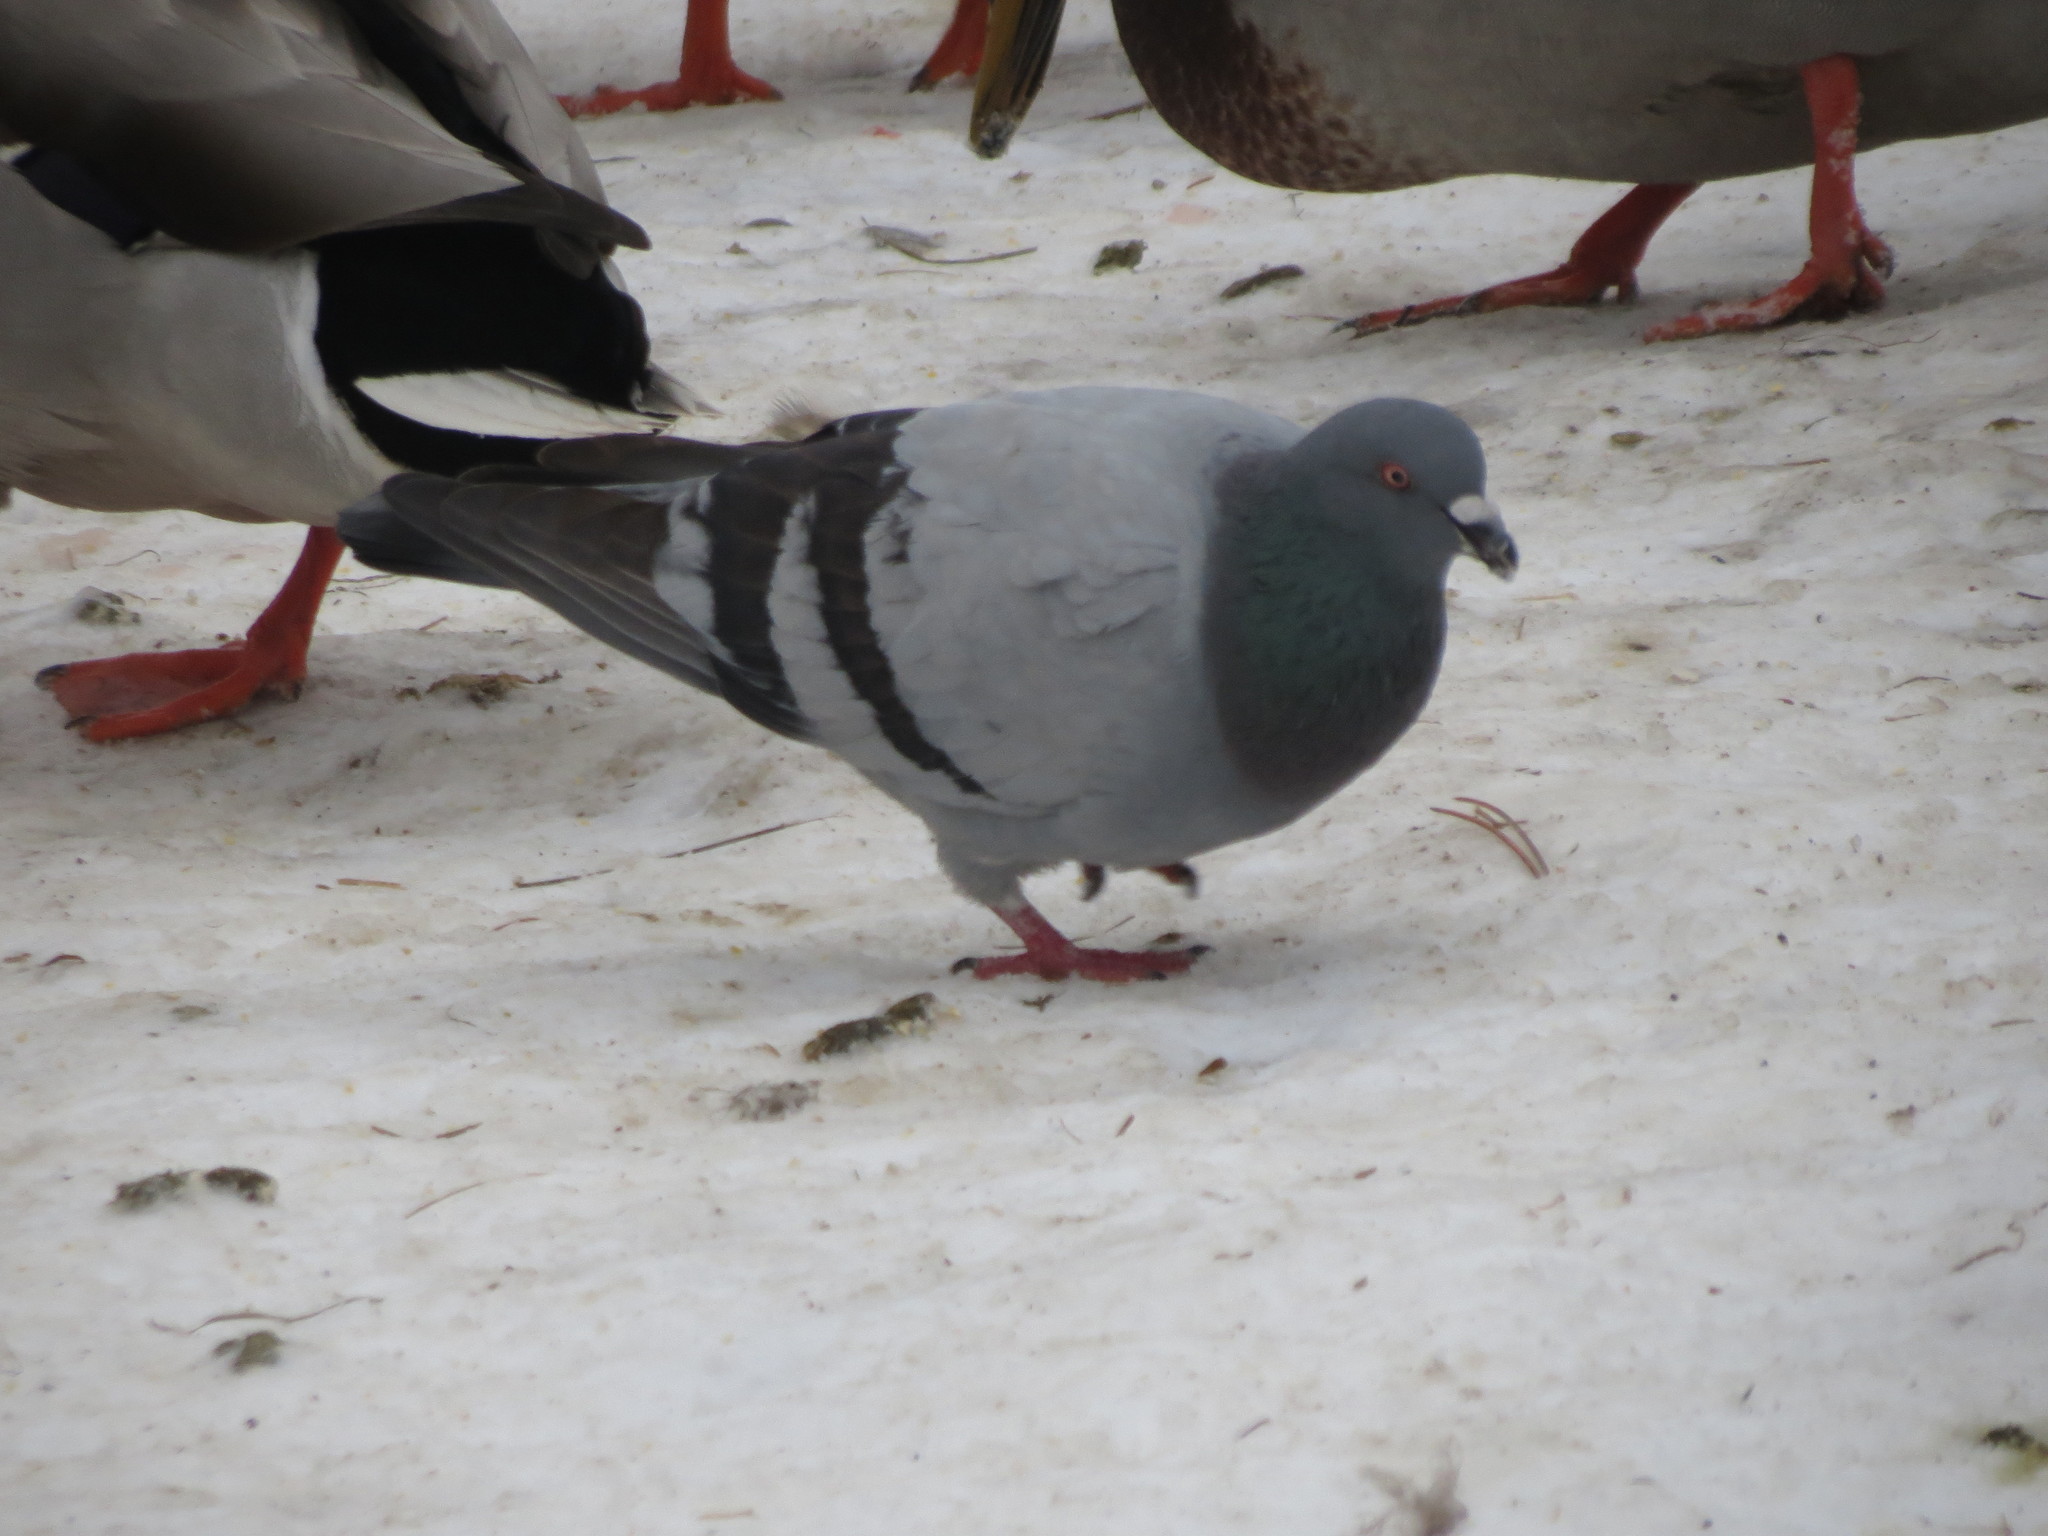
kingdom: Animalia
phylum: Chordata
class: Aves
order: Columbiformes
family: Columbidae
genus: Columba
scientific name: Columba livia
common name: Rock pigeon
